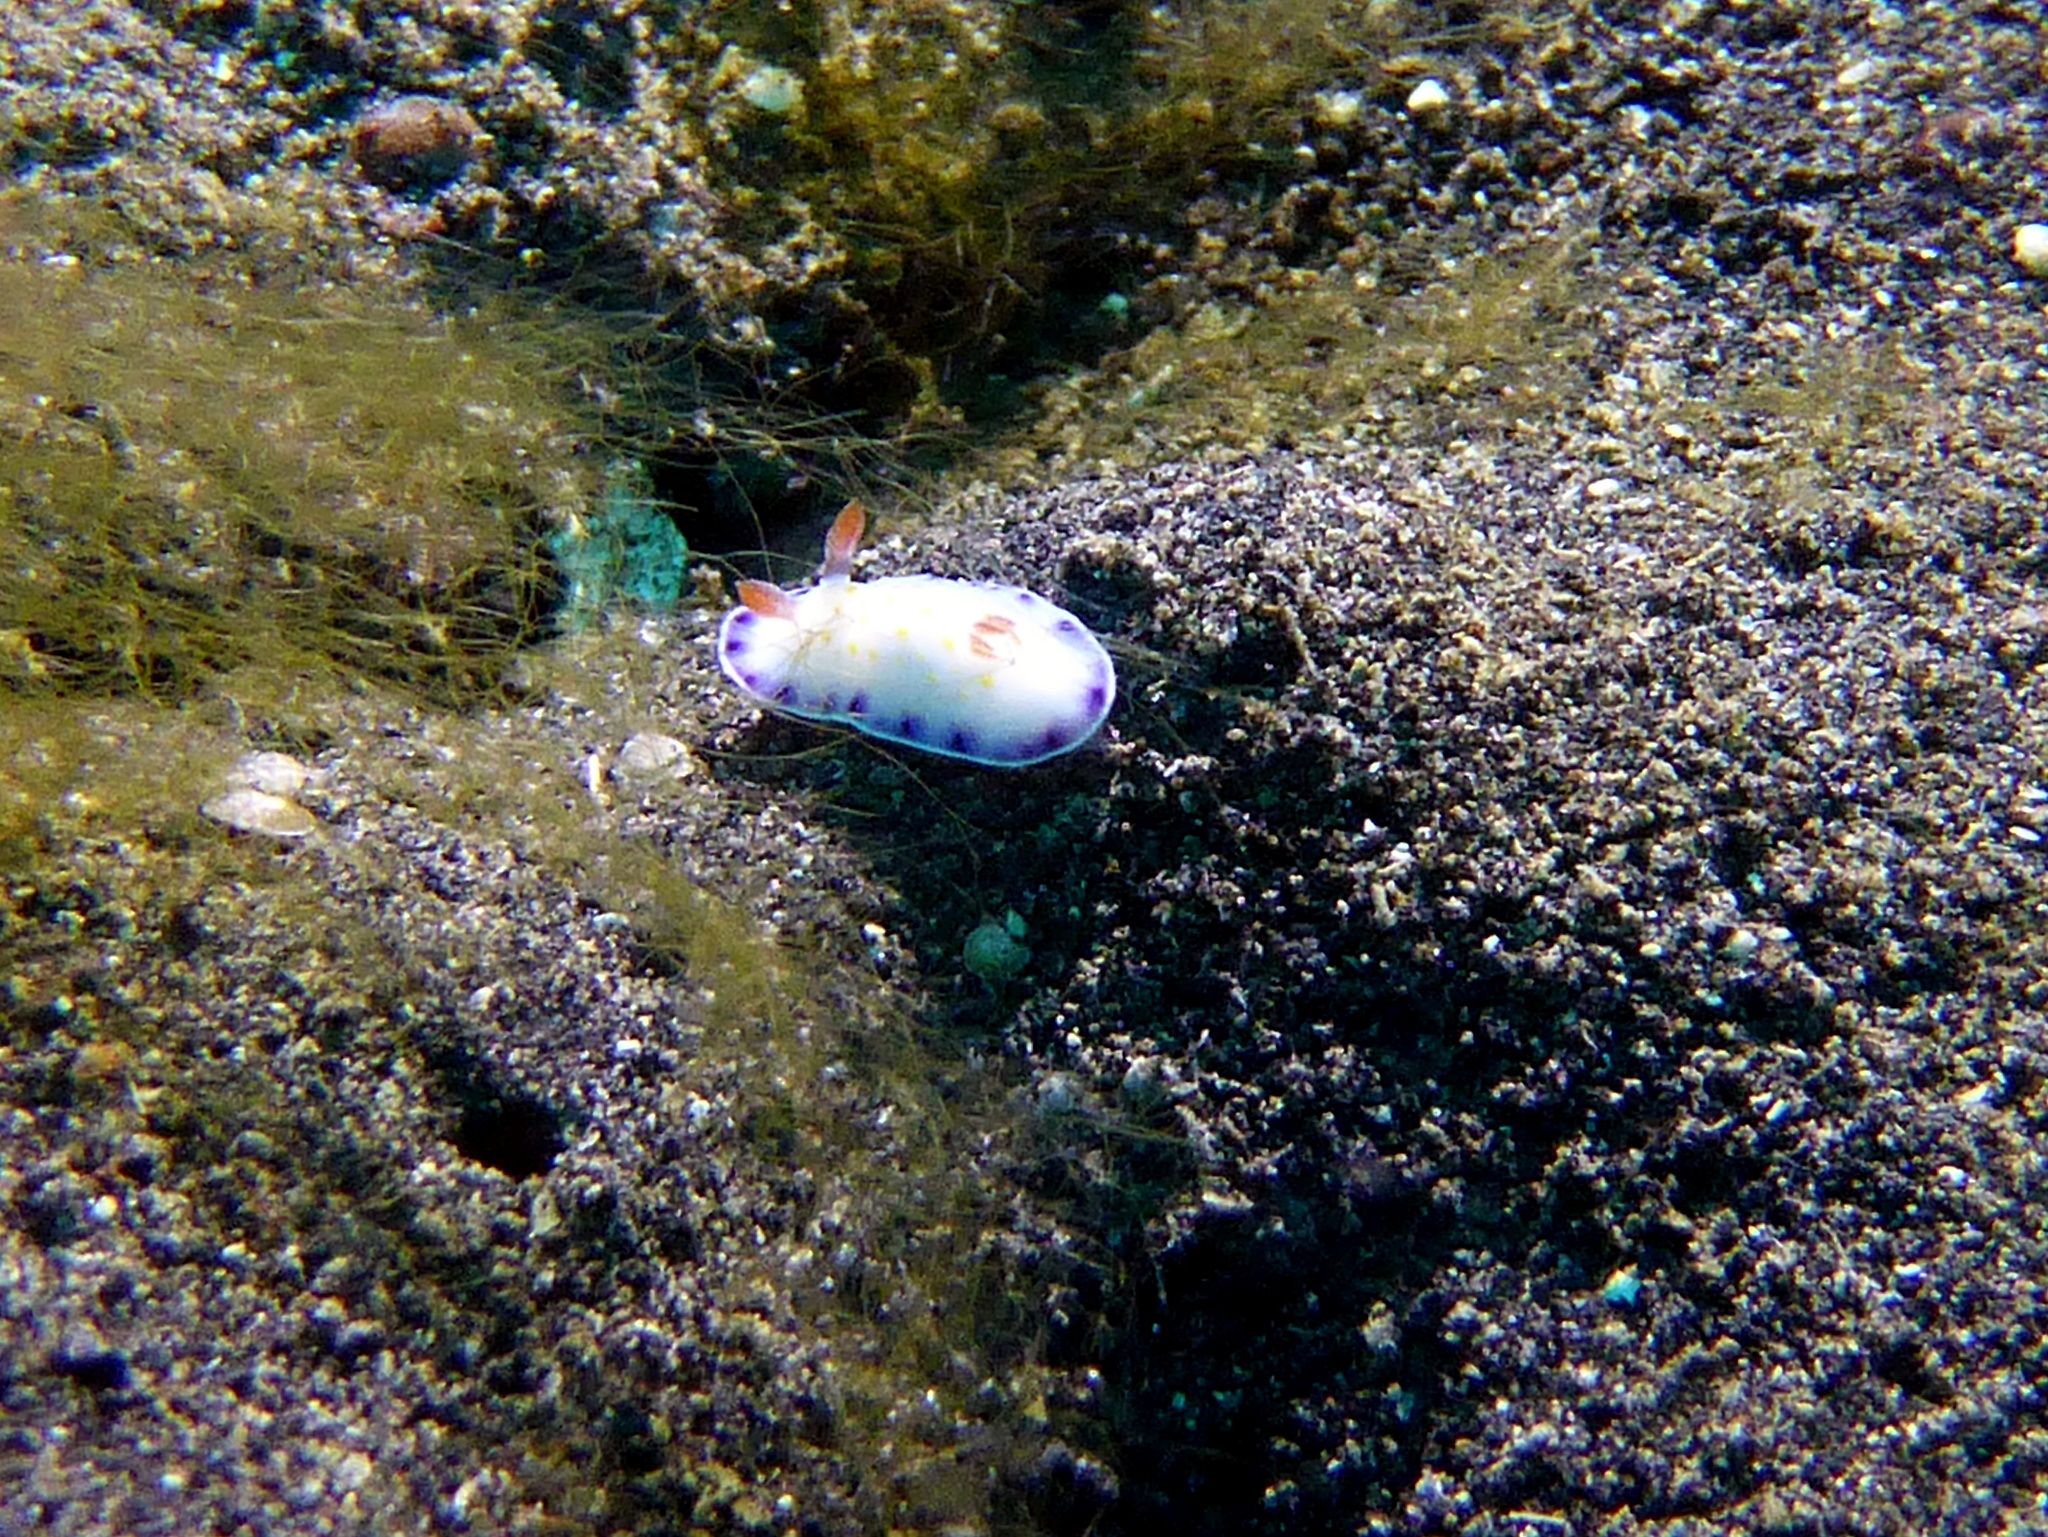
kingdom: Animalia
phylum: Mollusca
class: Gastropoda
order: Nudibranchia
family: Chromodorididae
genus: Goniobranchus
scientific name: Goniobranchus aureopurpureus
